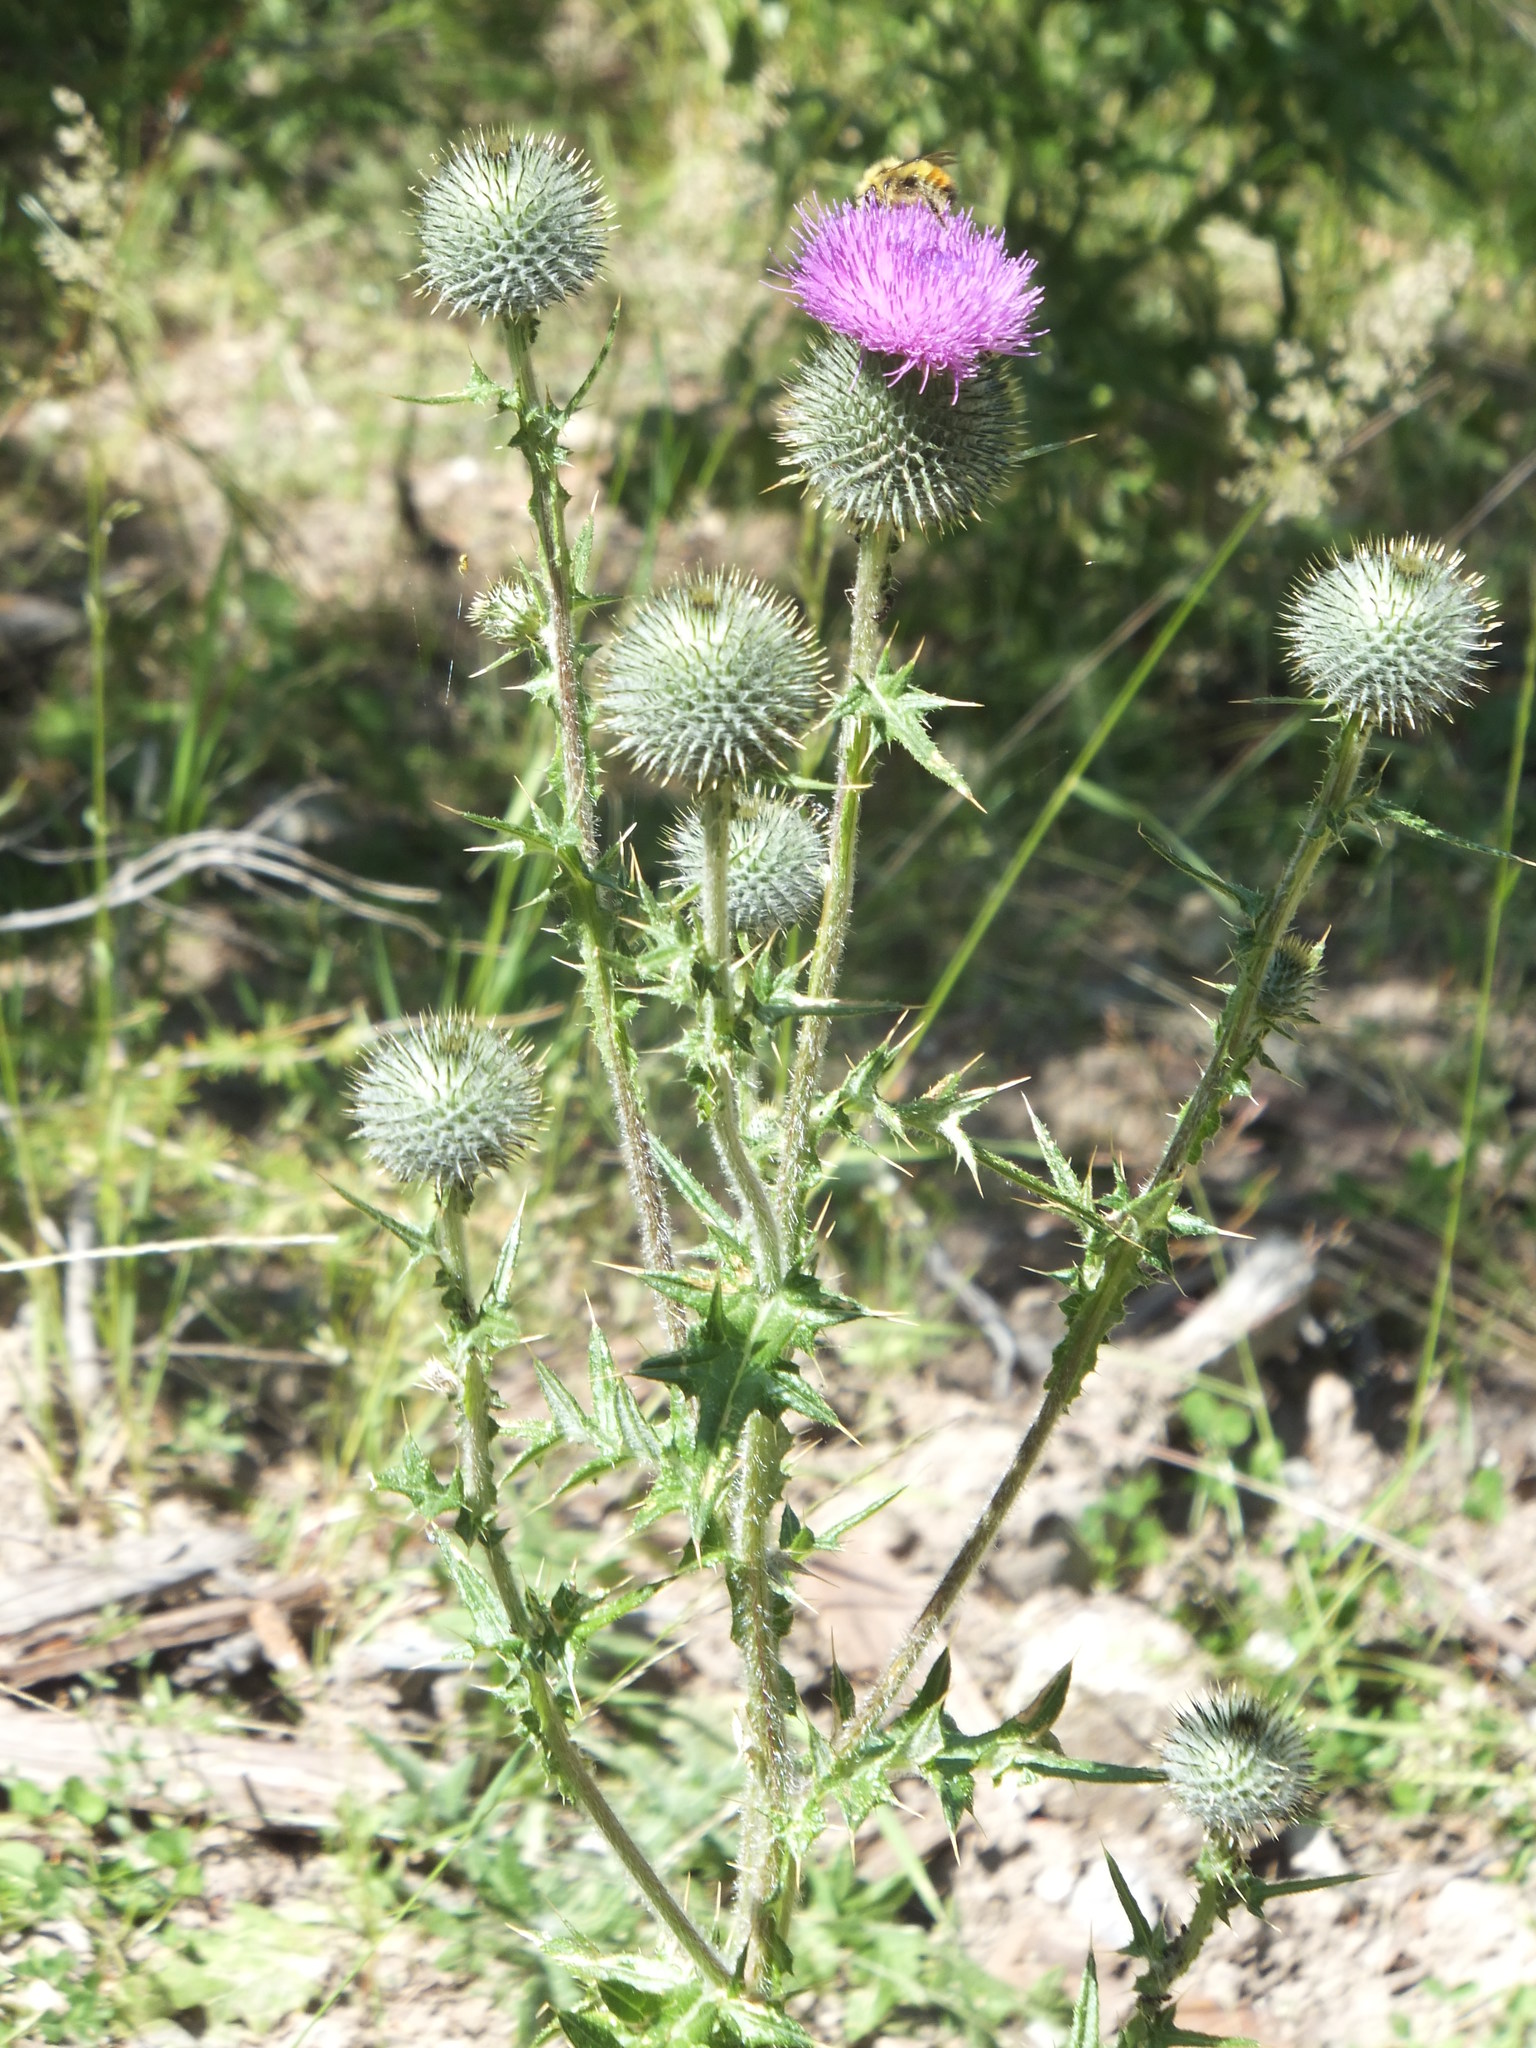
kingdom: Plantae
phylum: Tracheophyta
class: Magnoliopsida
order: Asterales
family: Asteraceae
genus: Cirsium
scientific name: Cirsium vulgare
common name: Bull thistle
